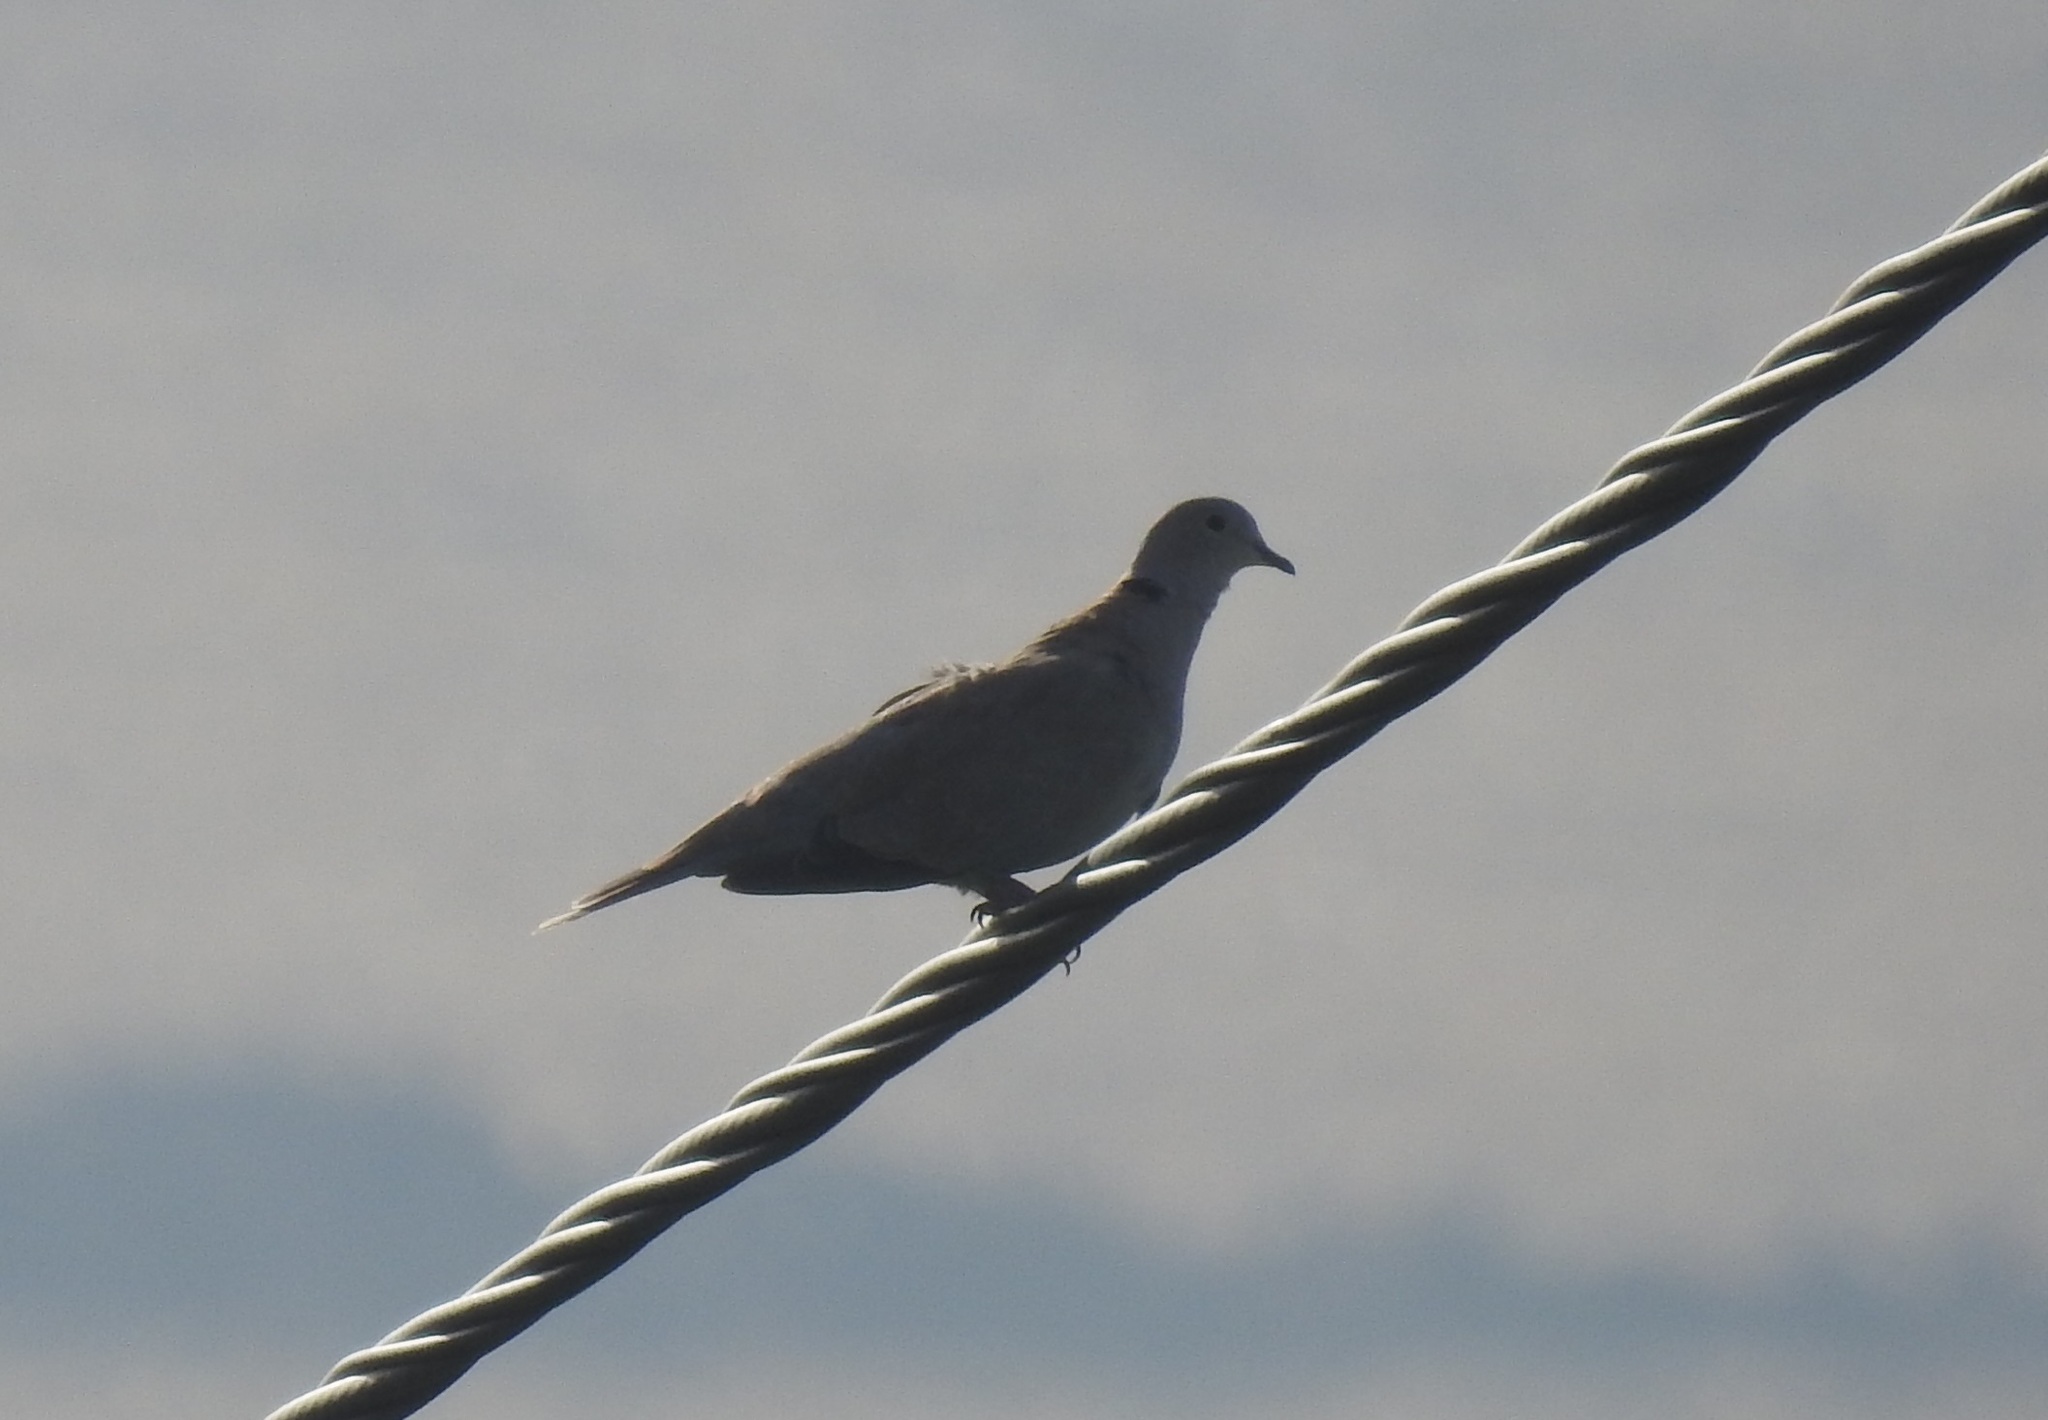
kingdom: Animalia
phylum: Chordata
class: Aves
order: Columbiformes
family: Columbidae
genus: Streptopelia
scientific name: Streptopelia decaocto
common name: Eurasian collared dove
